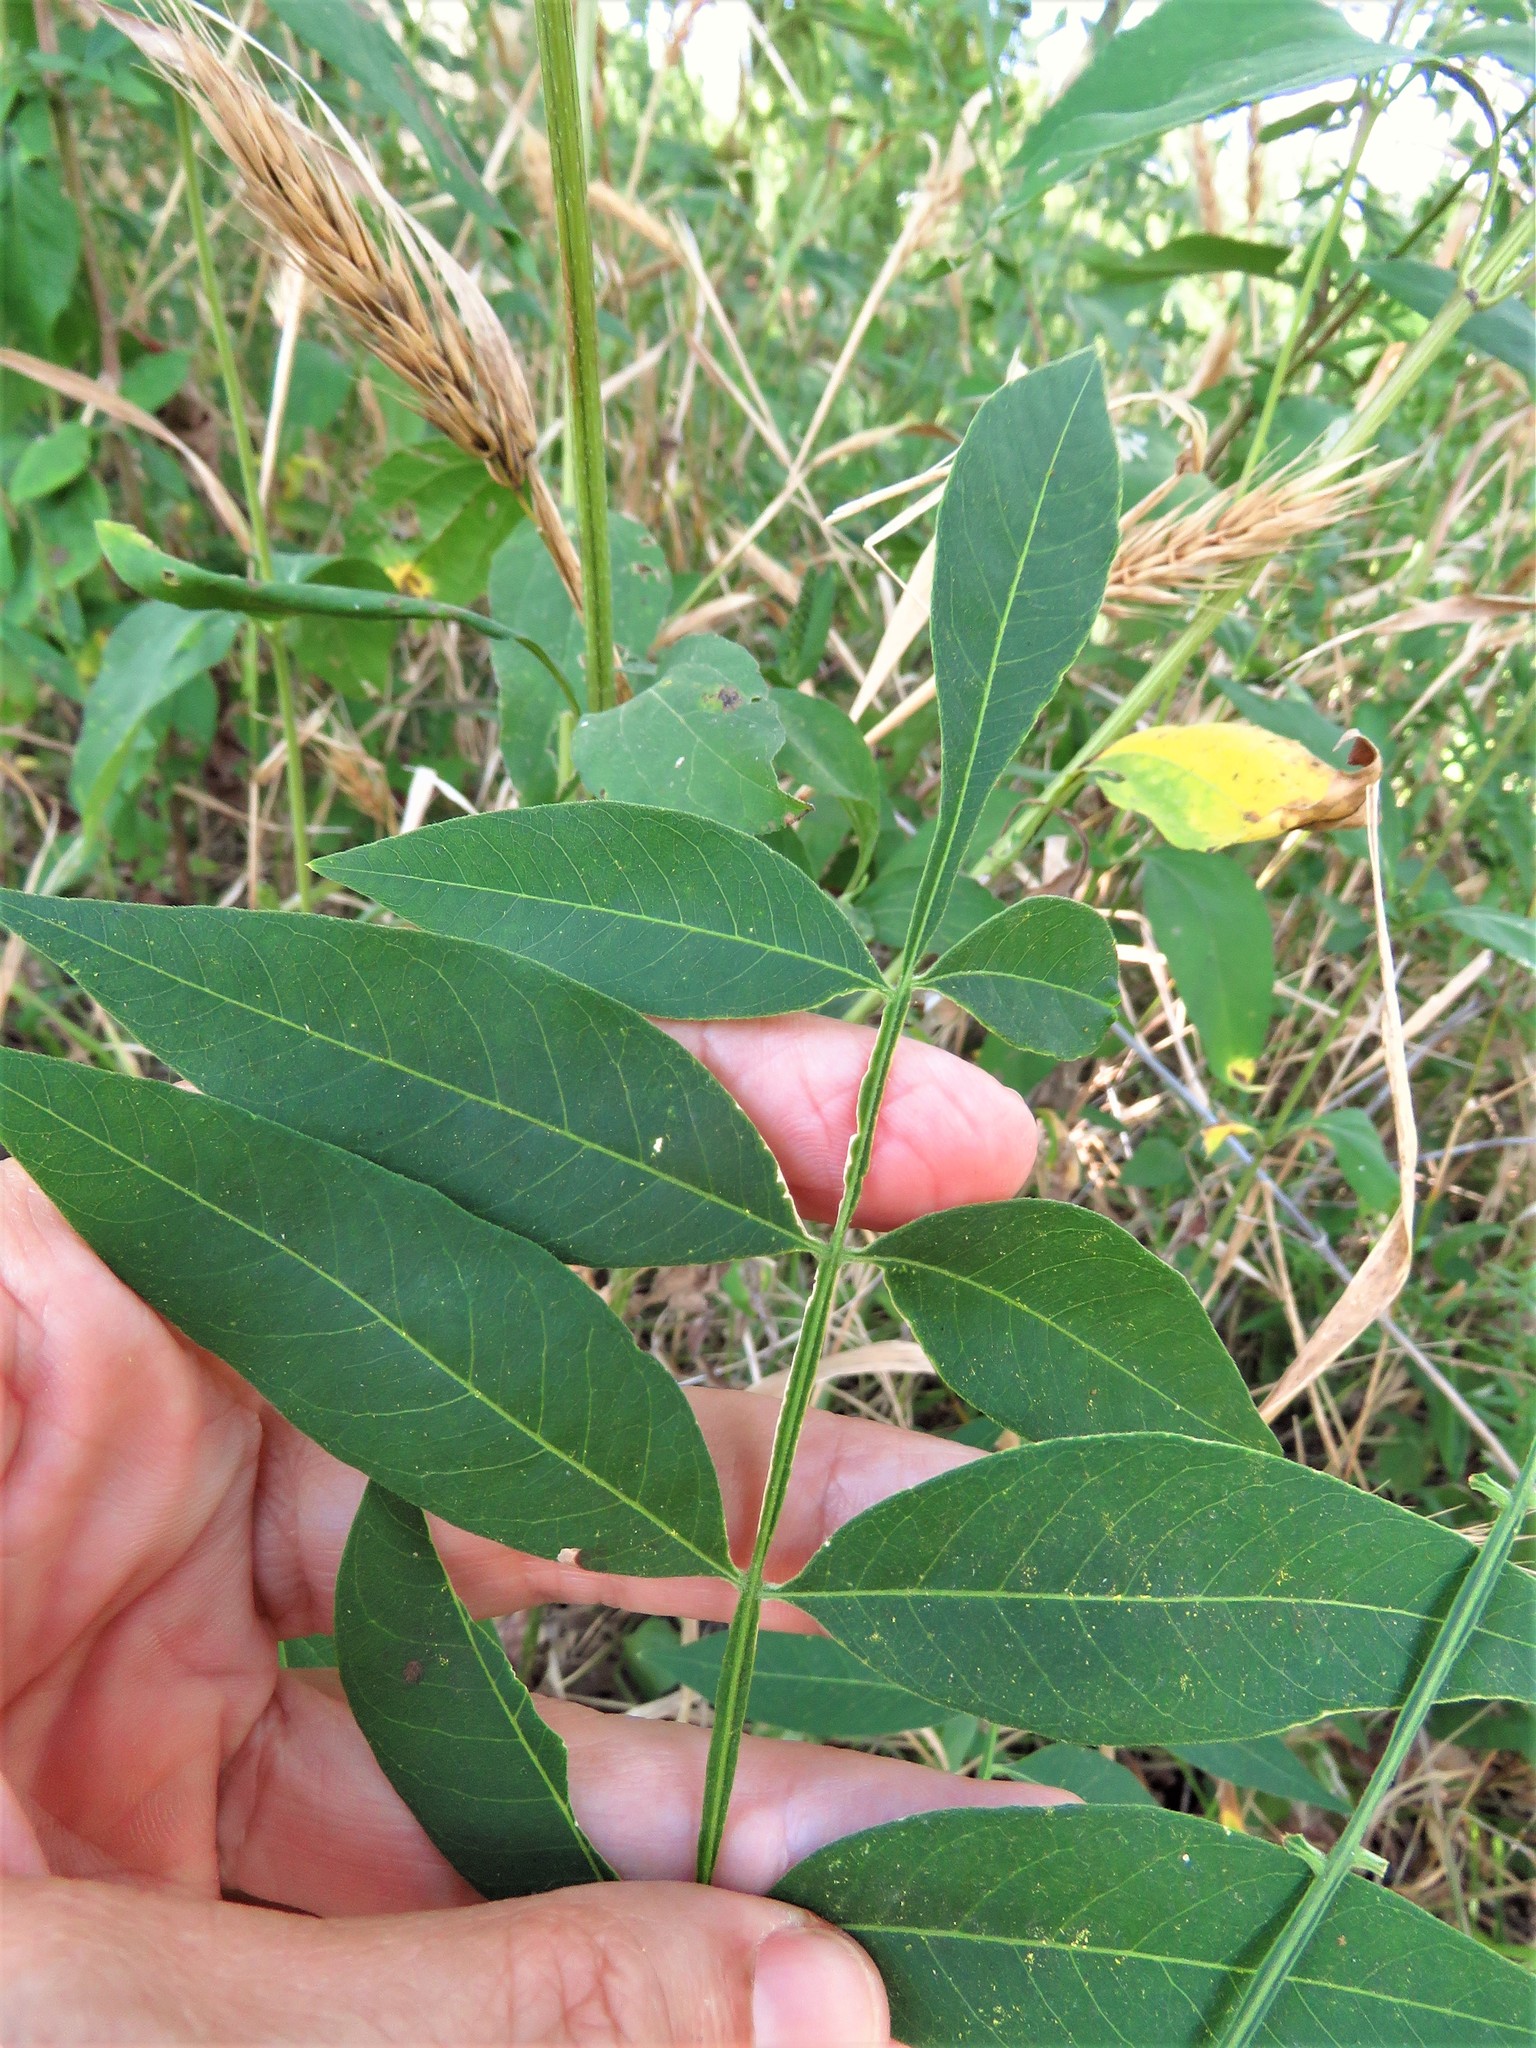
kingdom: Plantae
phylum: Tracheophyta
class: Magnoliopsida
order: Sapindales
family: Sapindaceae
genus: Sapindus
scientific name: Sapindus drummondii
